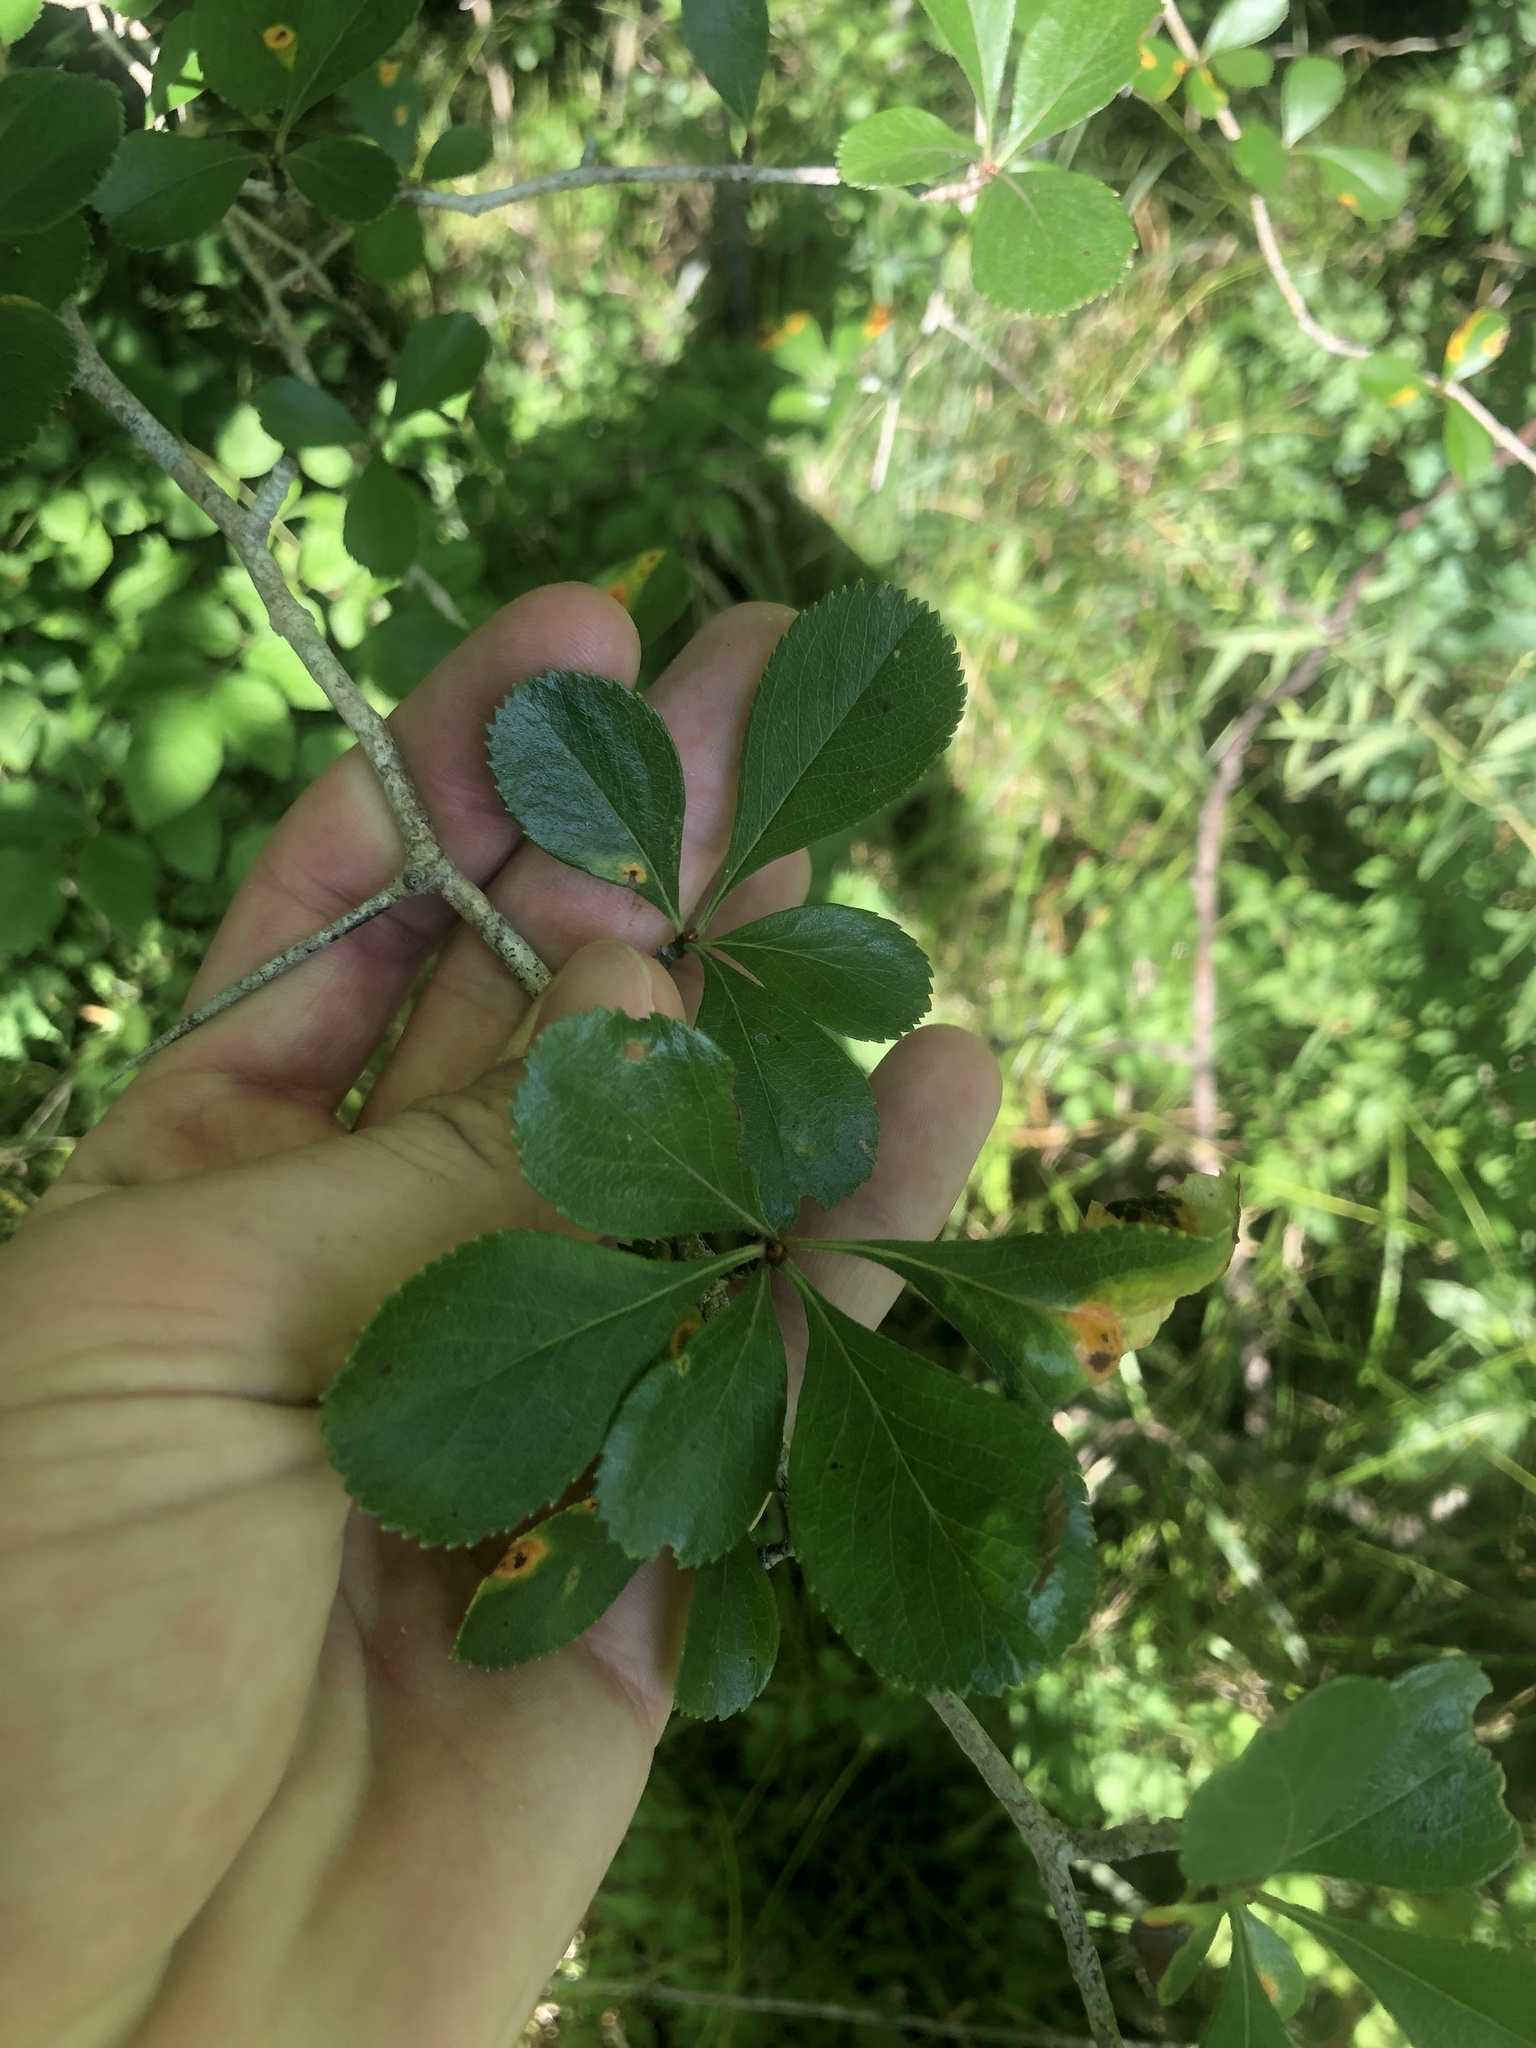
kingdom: Plantae
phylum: Tracheophyta
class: Magnoliopsida
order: Rosales
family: Rosaceae
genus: Crataegus
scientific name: Crataegus berberifolia
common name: Barberry hawthorn
